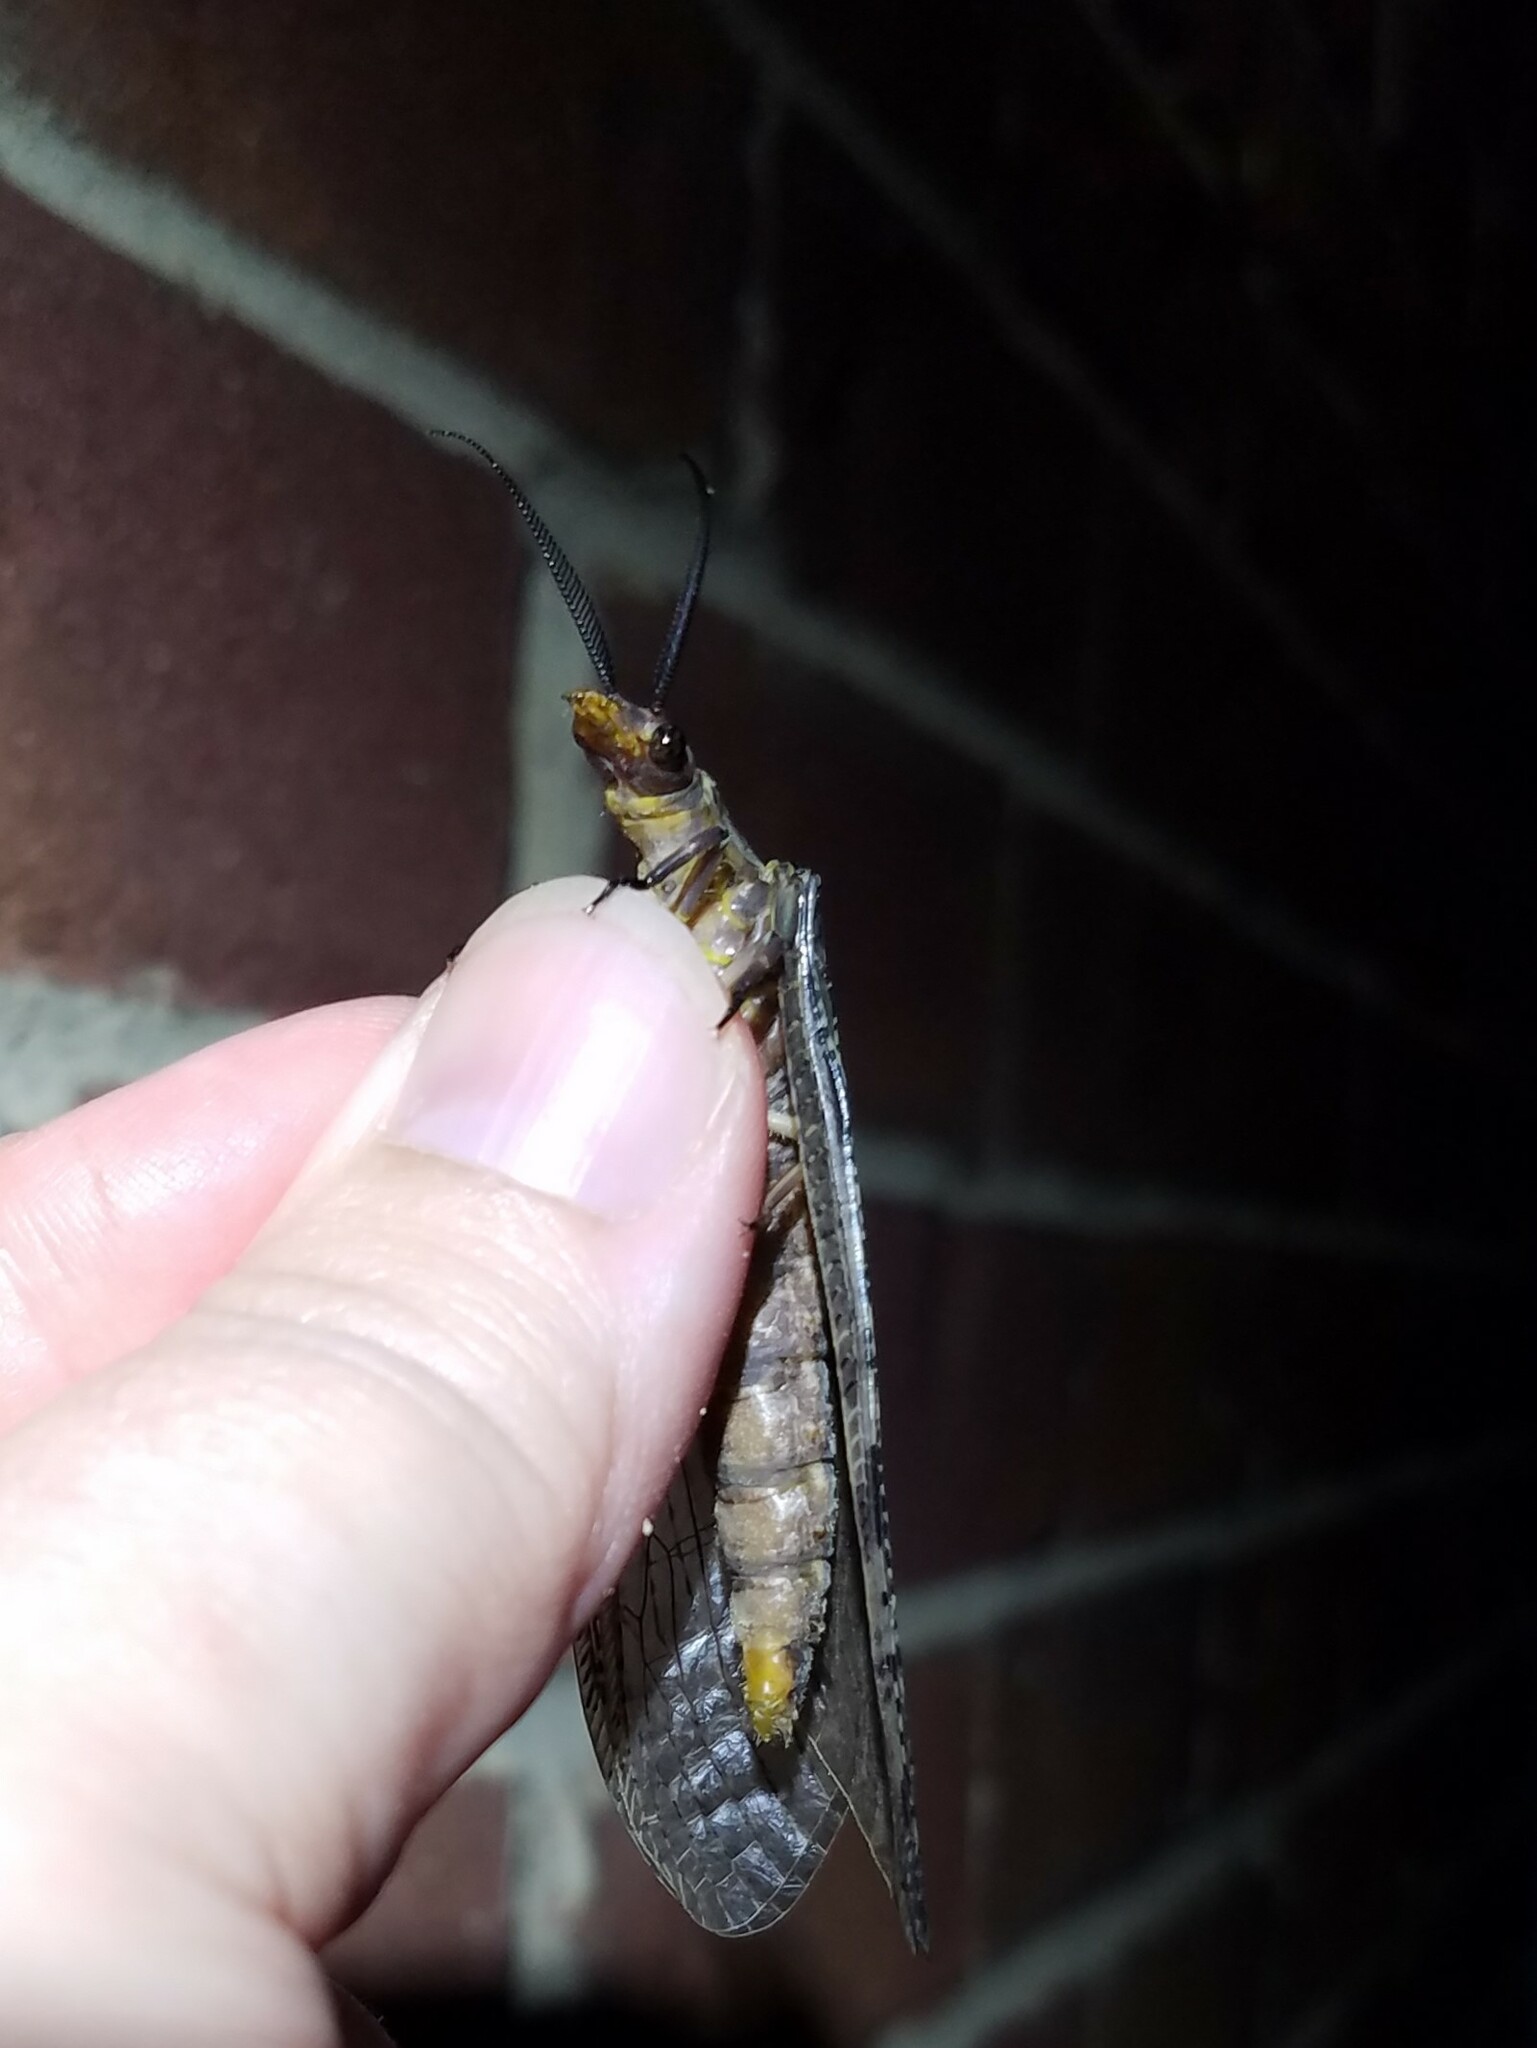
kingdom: Animalia
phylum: Arthropoda
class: Insecta
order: Megaloptera
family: Corydalidae
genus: Chauliodes
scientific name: Chauliodes pectinicornis
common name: Summer fishfly
